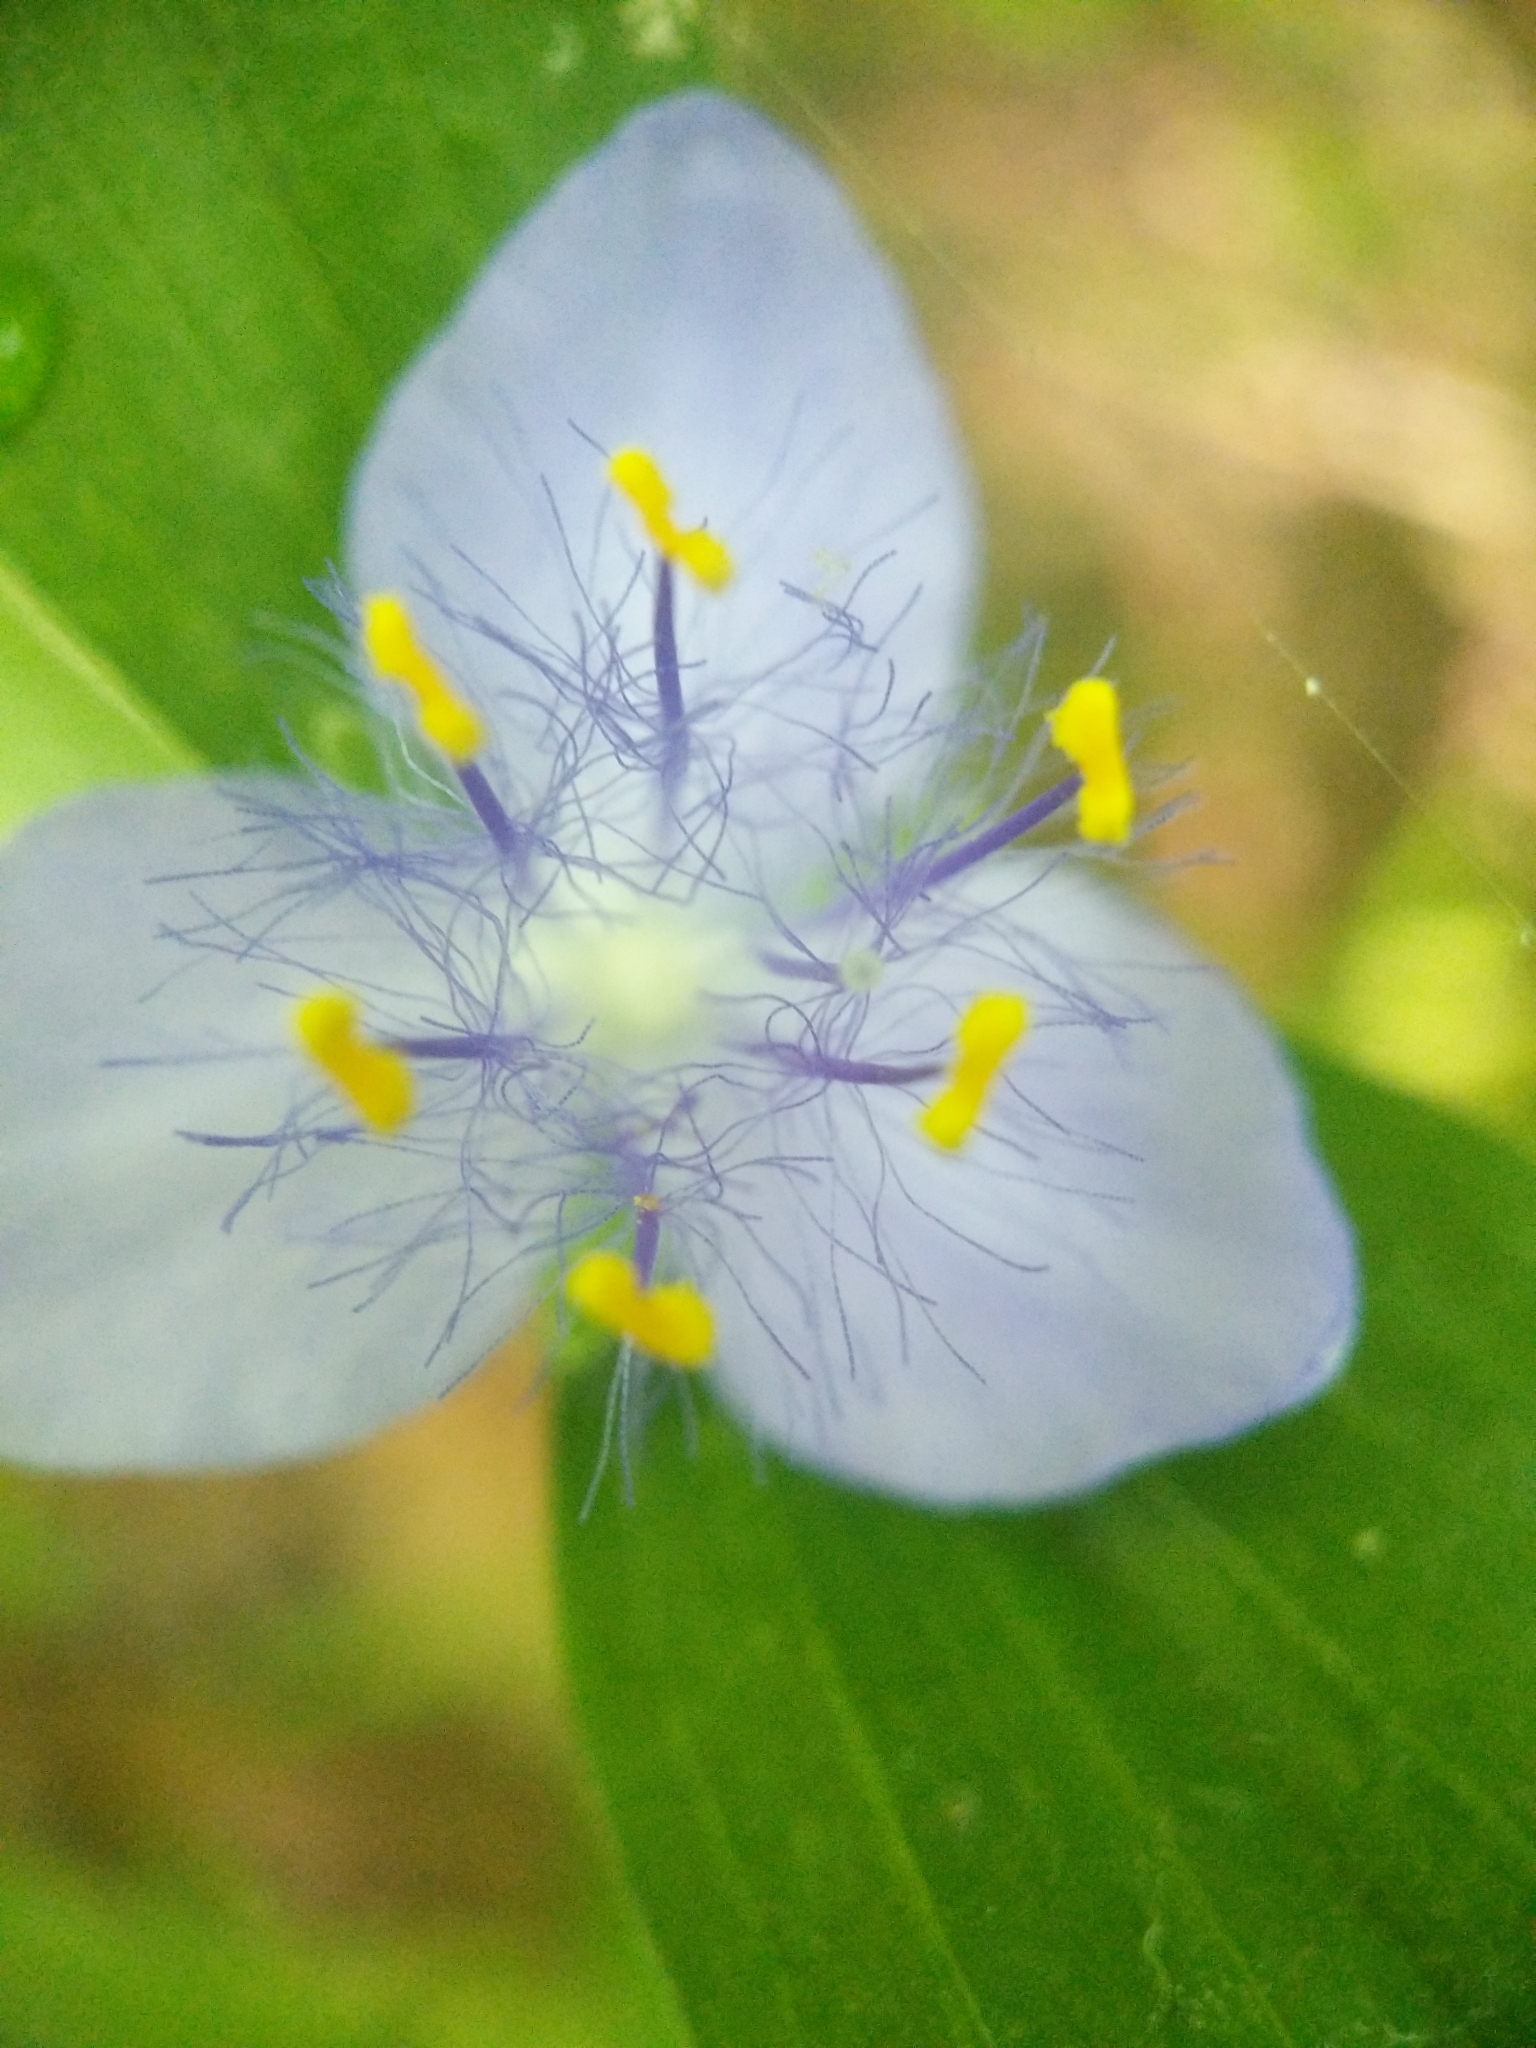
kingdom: Plantae
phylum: Tracheophyta
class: Liliopsida
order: Commelinales
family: Commelinaceae
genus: Tradescantia
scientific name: Tradescantia subaspera
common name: Wide-leaf spiderwort
